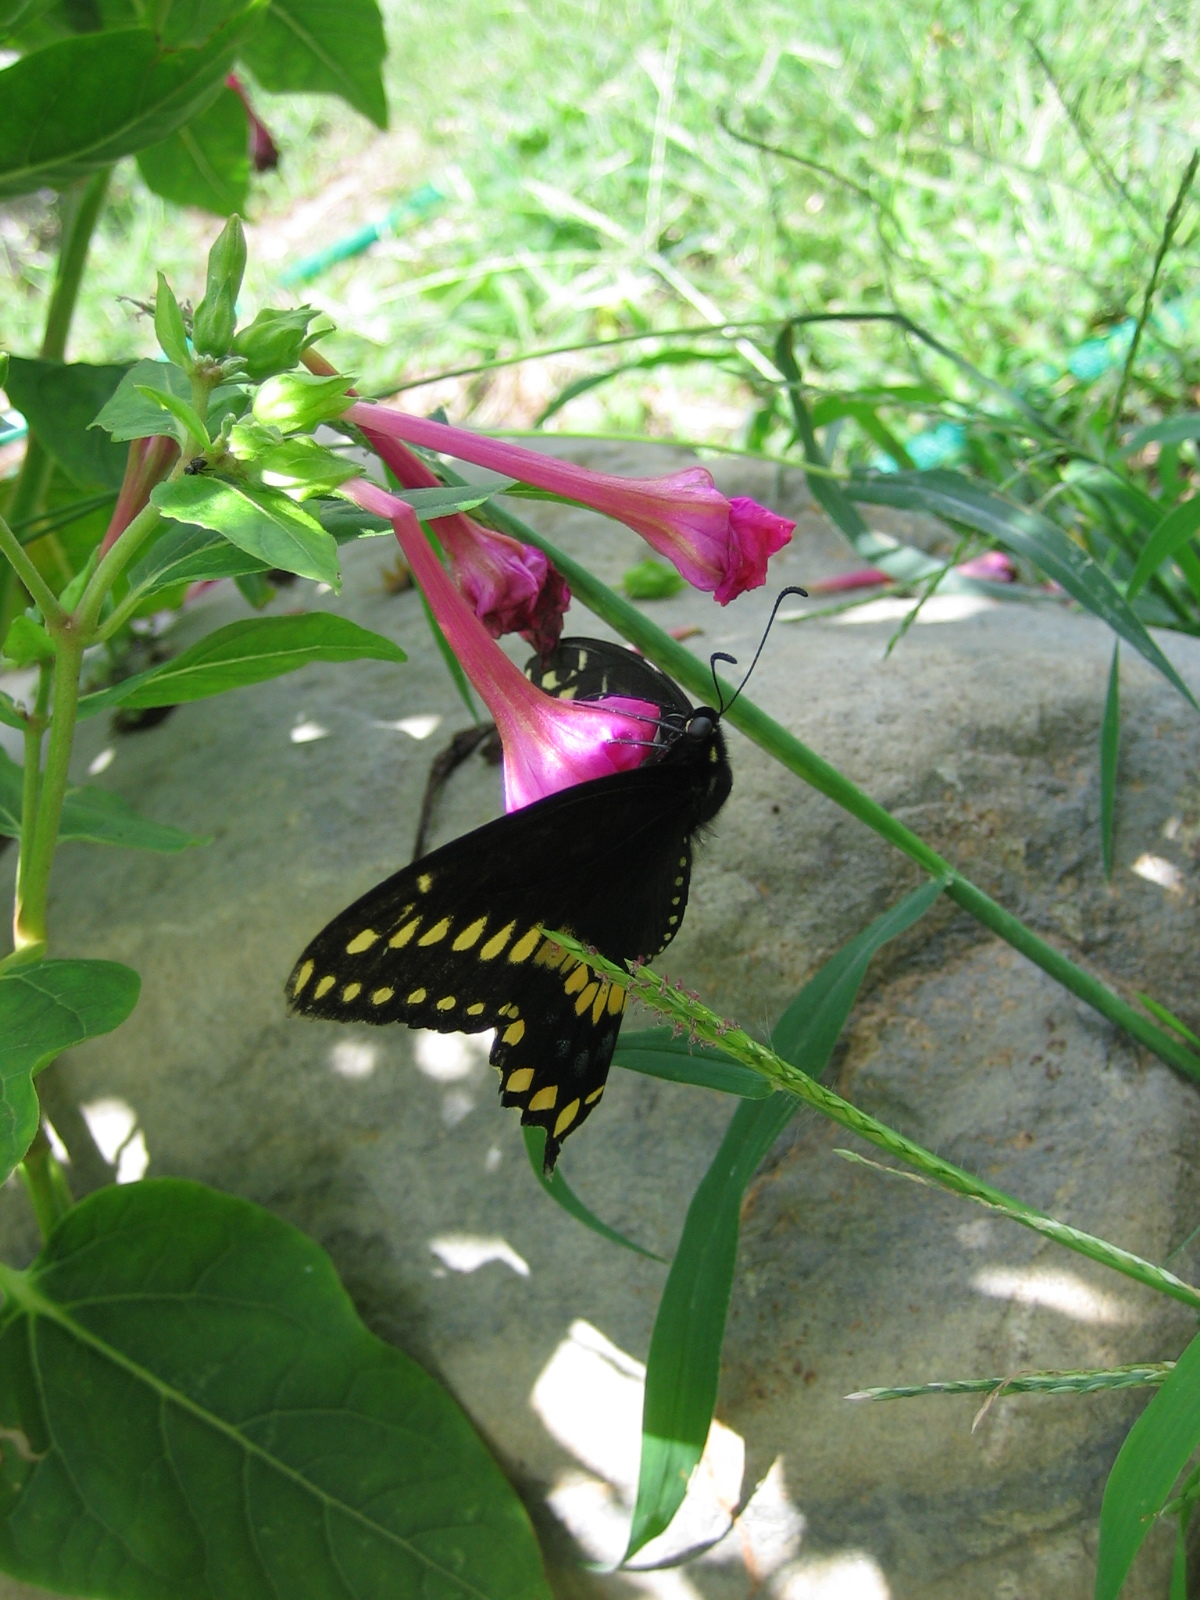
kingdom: Animalia
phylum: Arthropoda
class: Insecta
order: Lepidoptera
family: Papilionidae
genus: Papilio
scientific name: Papilio polyxenes
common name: Black swallowtail
